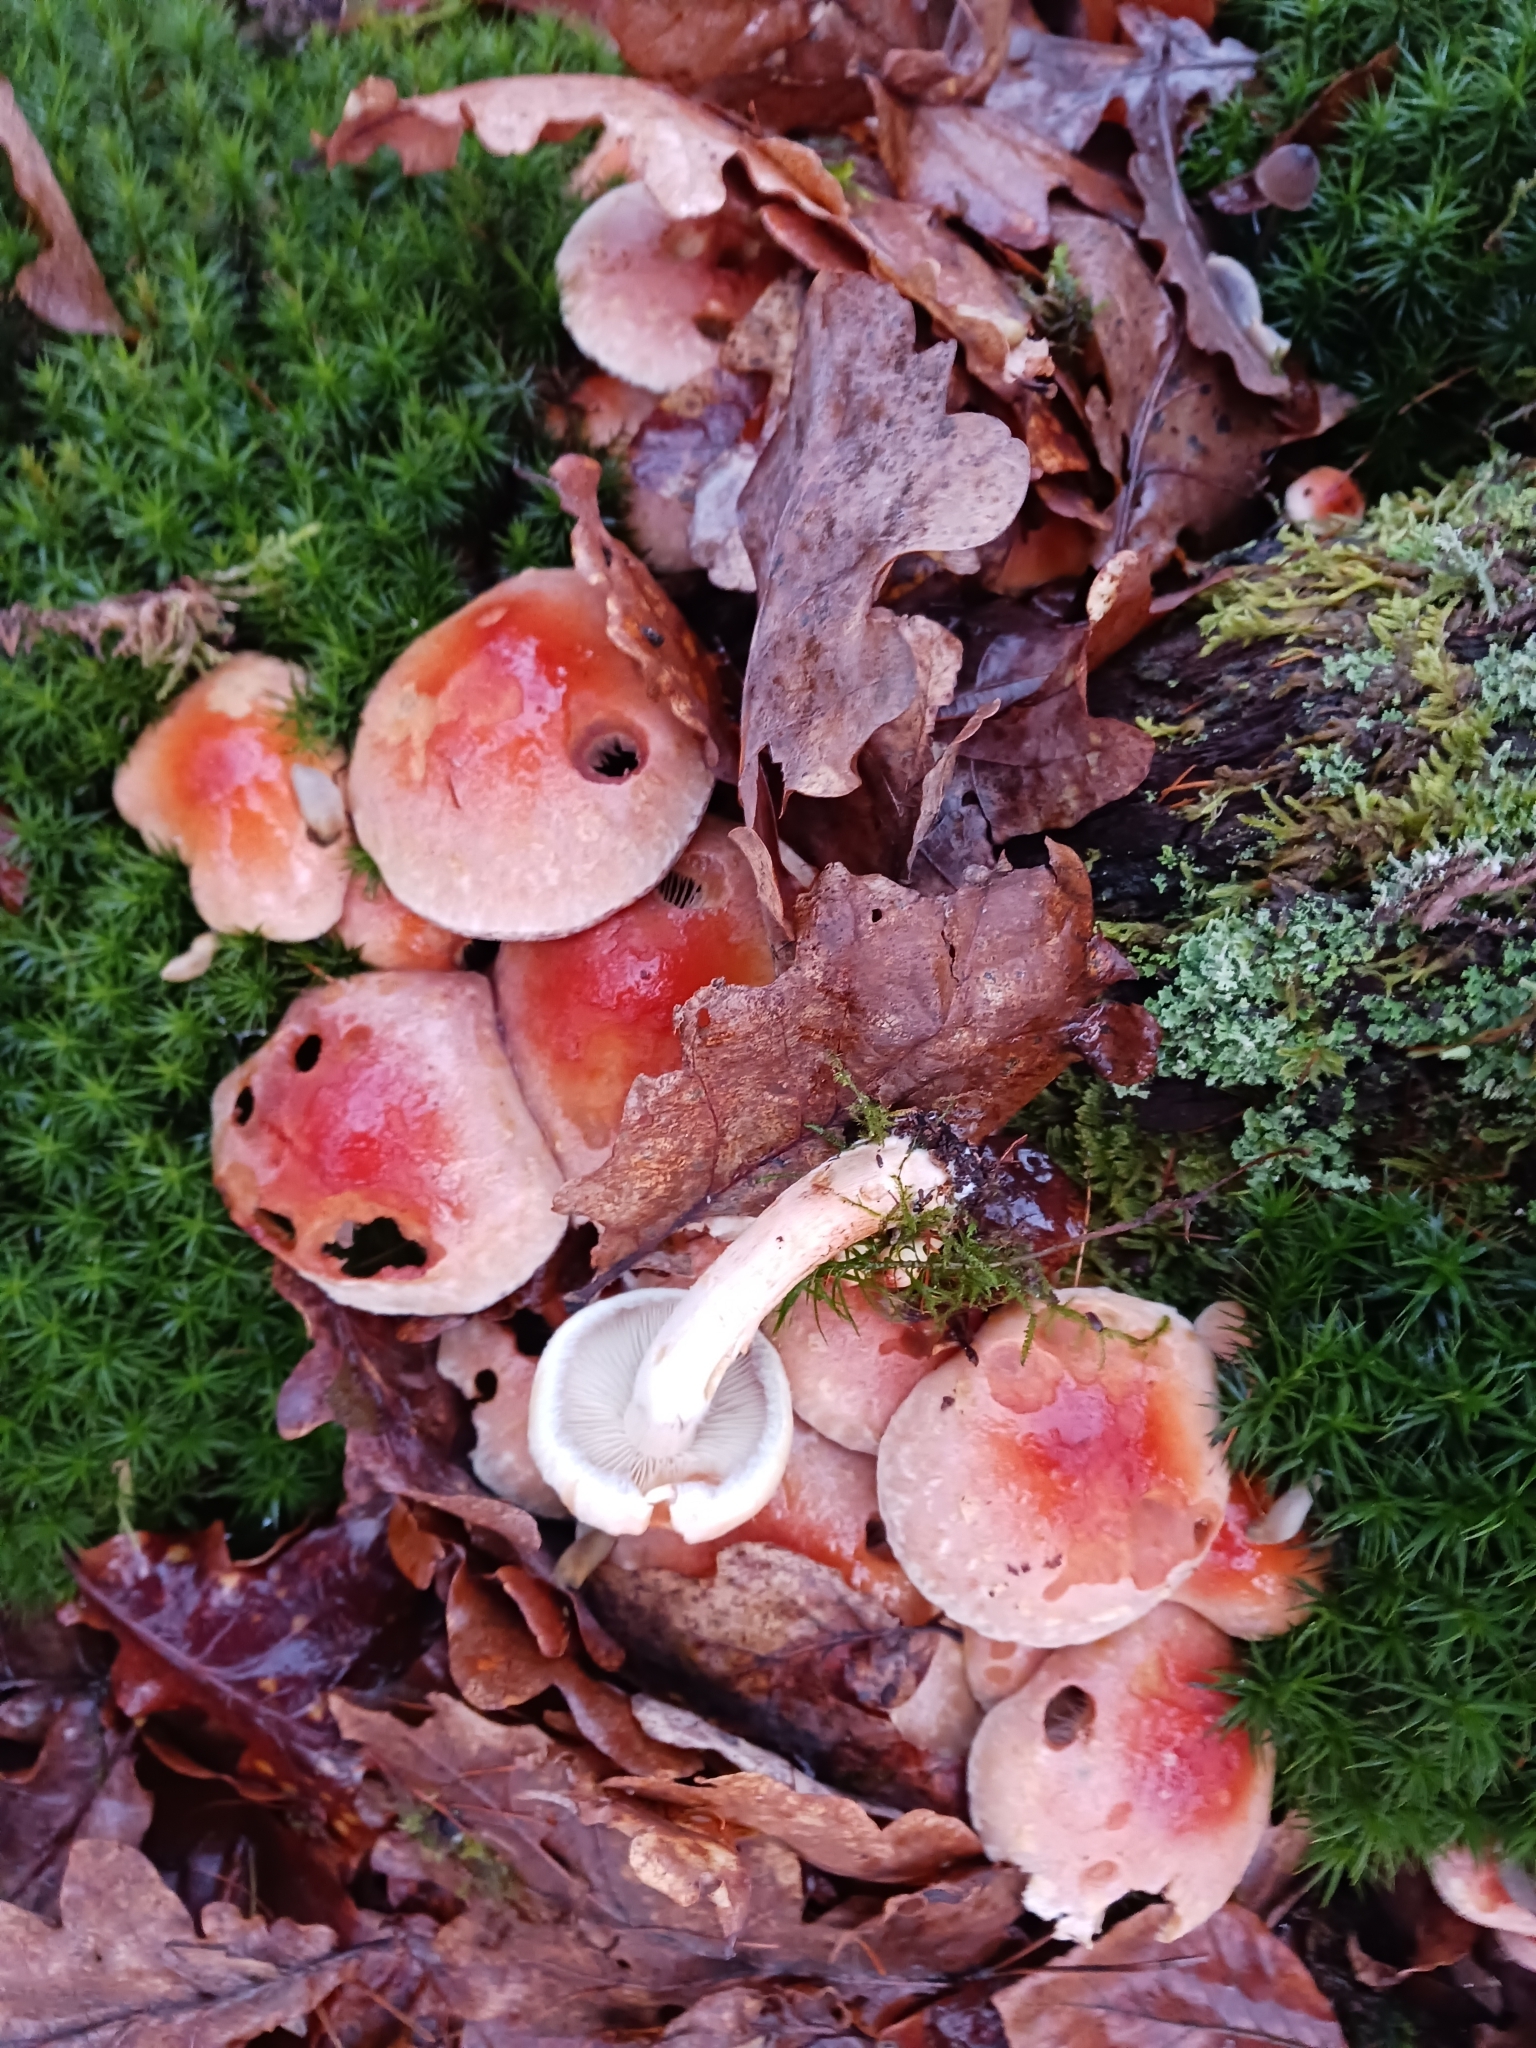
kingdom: Fungi
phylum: Basidiomycota
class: Agaricomycetes
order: Agaricales
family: Strophariaceae
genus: Hypholoma
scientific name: Hypholoma lateritium
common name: Brick caps
